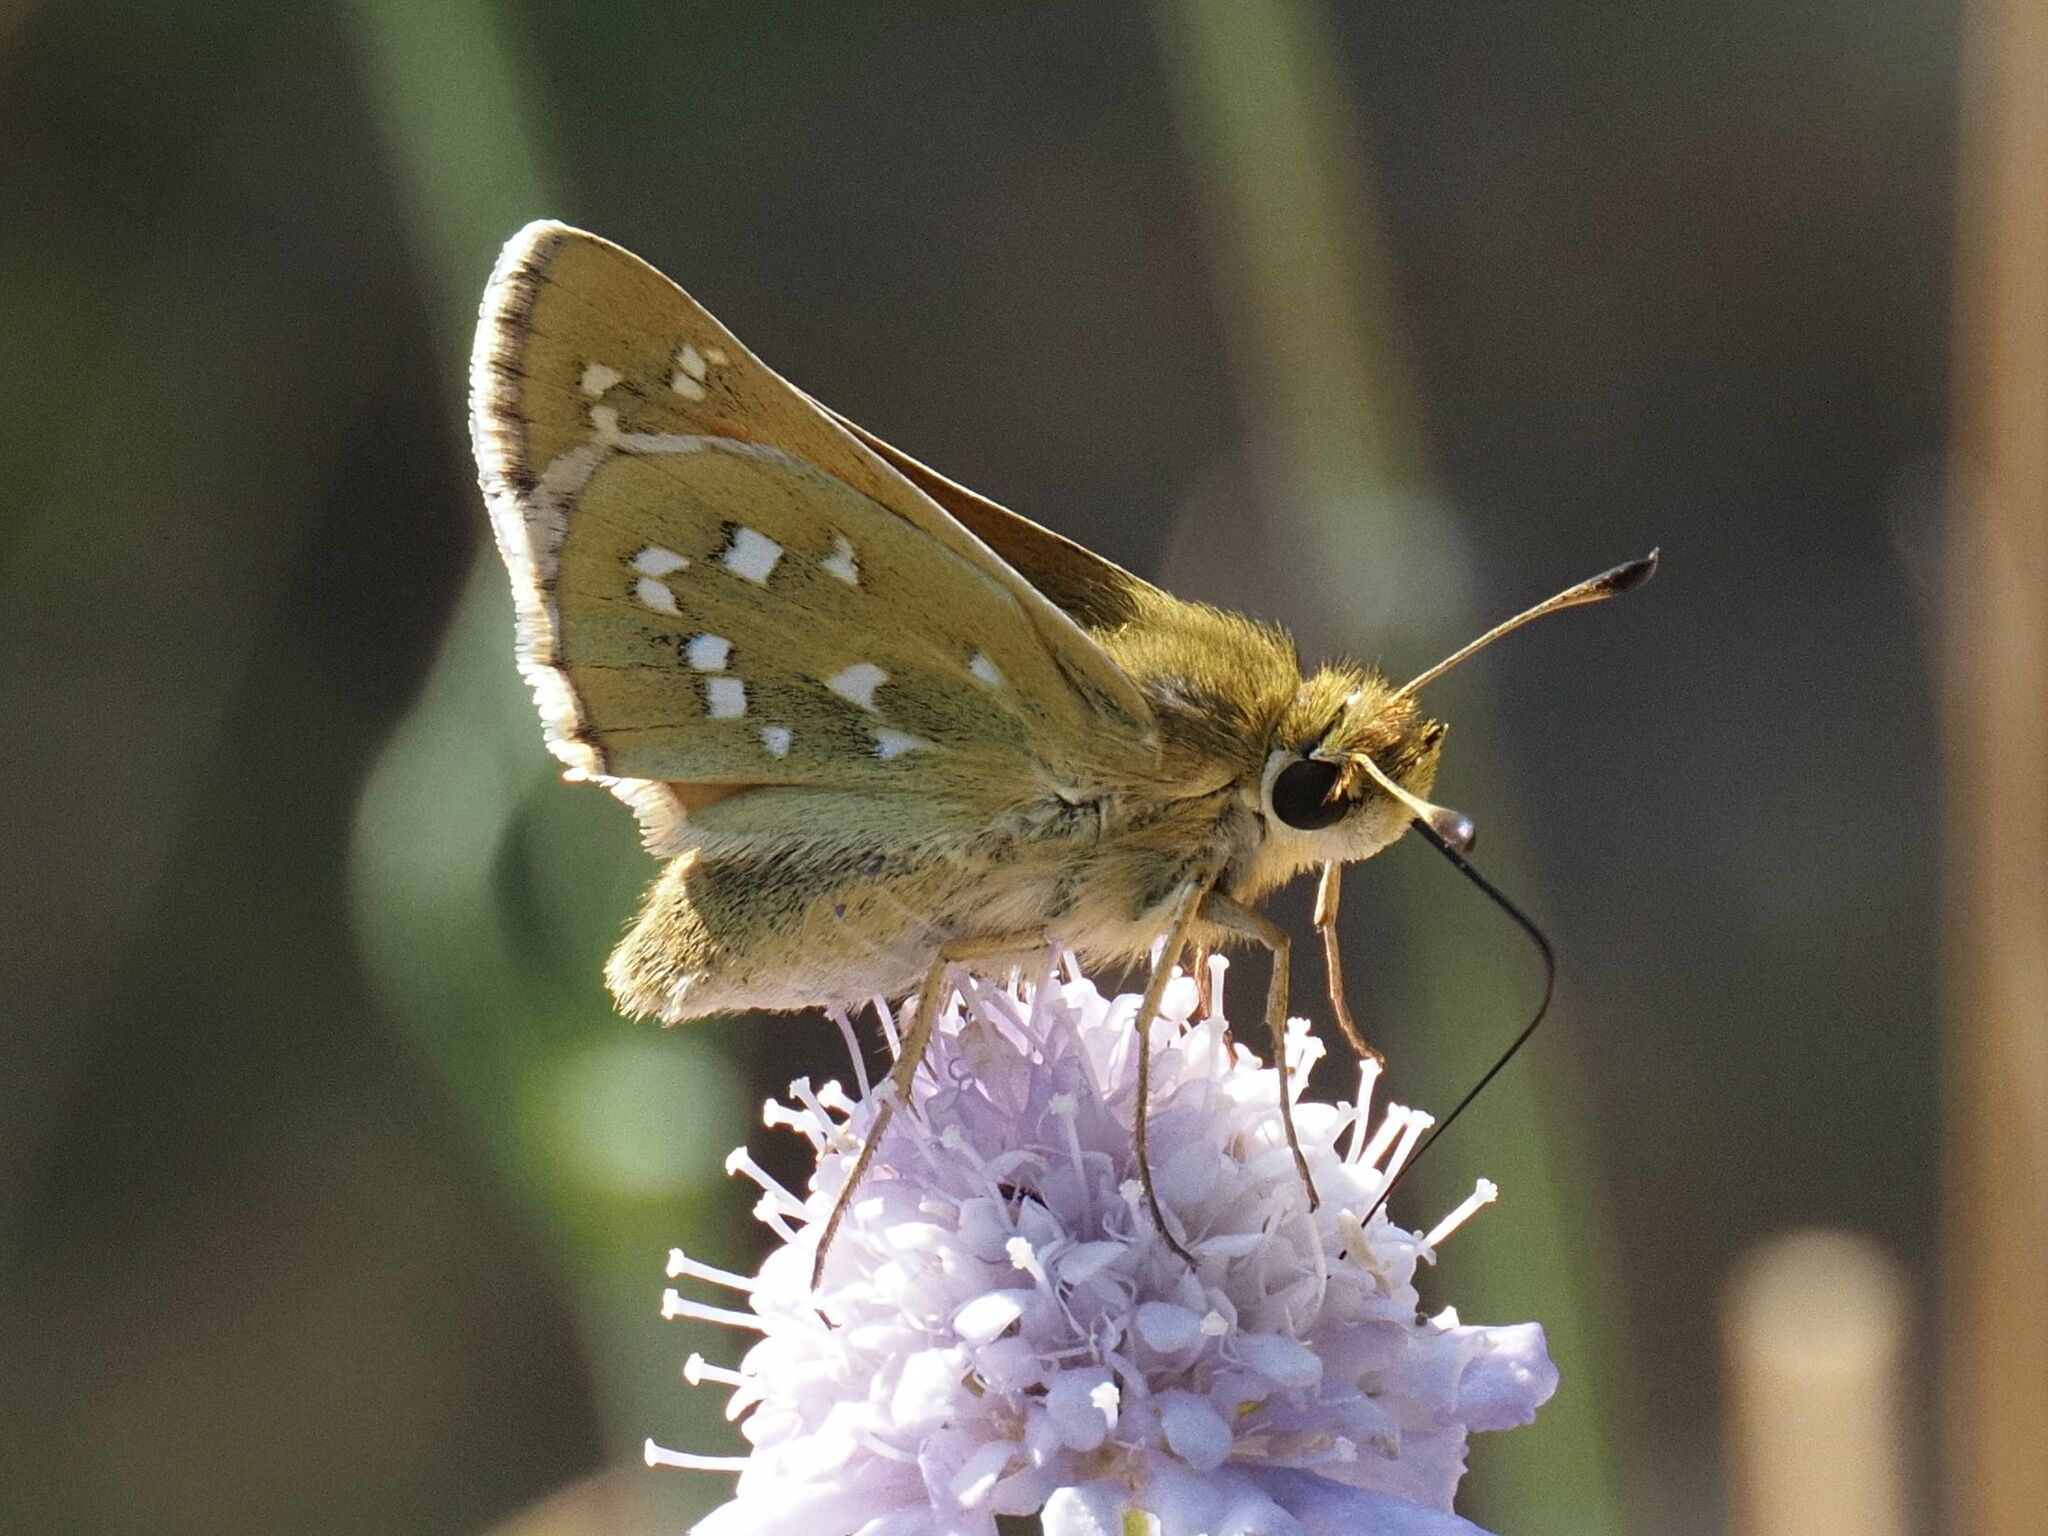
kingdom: Animalia
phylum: Arthropoda
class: Insecta
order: Lepidoptera
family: Hesperiidae
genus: Hesperia
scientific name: Hesperia comma
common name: Common branded skipper
